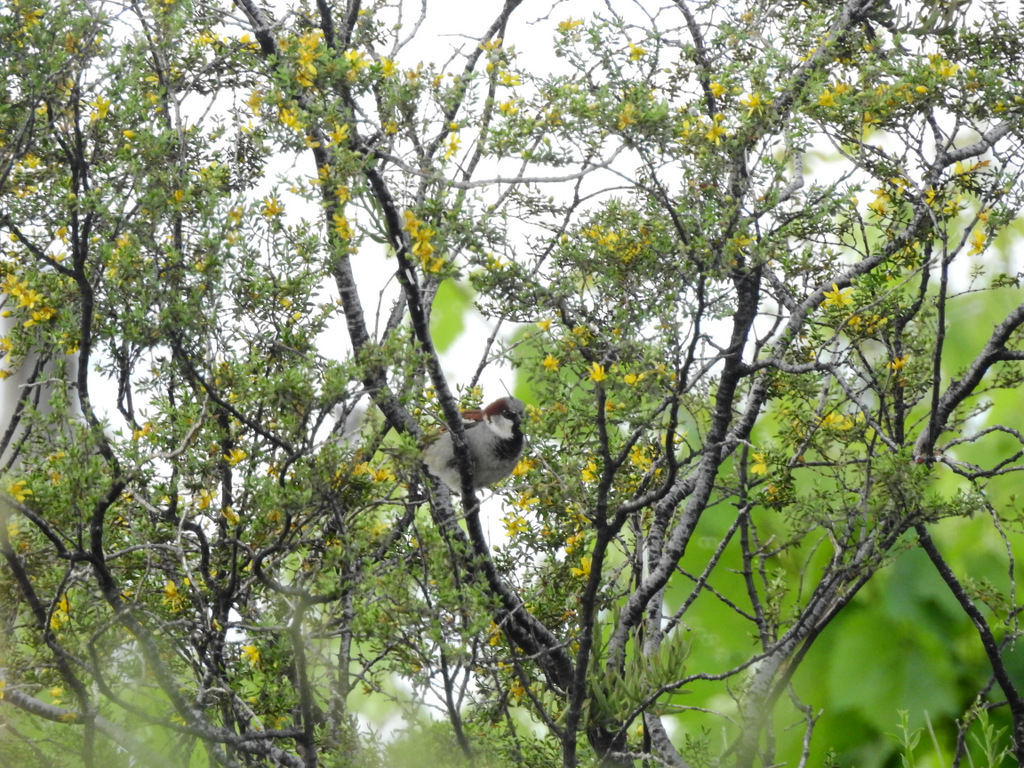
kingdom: Animalia
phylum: Chordata
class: Aves
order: Passeriformes
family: Passeridae
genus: Passer
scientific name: Passer domesticus
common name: House sparrow
